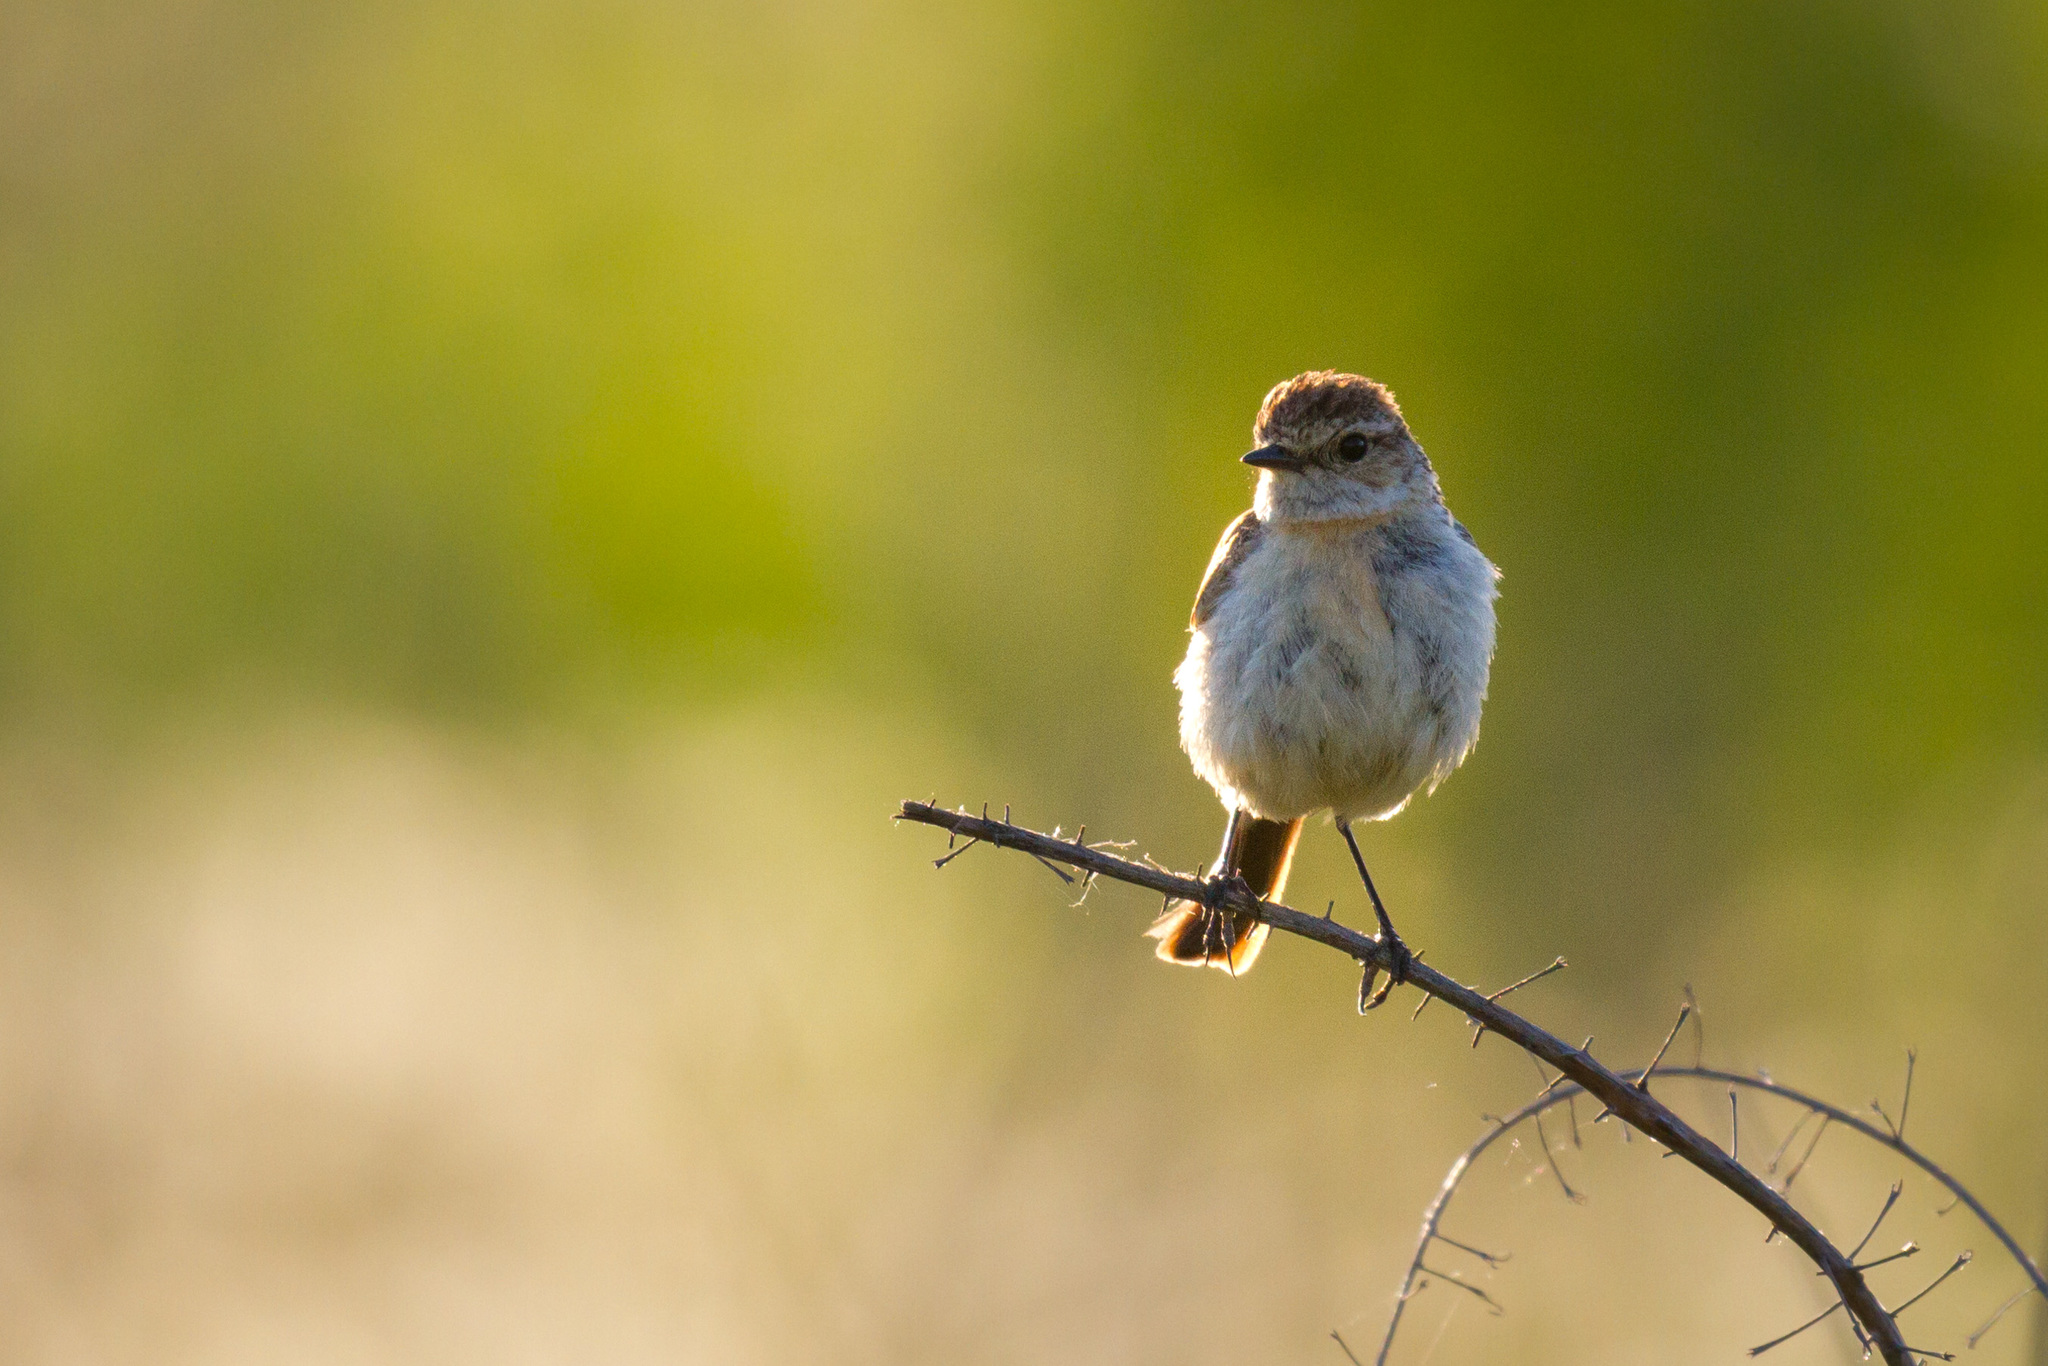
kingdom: Animalia
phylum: Chordata
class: Aves
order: Passeriformes
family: Muscicapidae
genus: Saxicola
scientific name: Saxicola maurus
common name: Siberian stonechat
